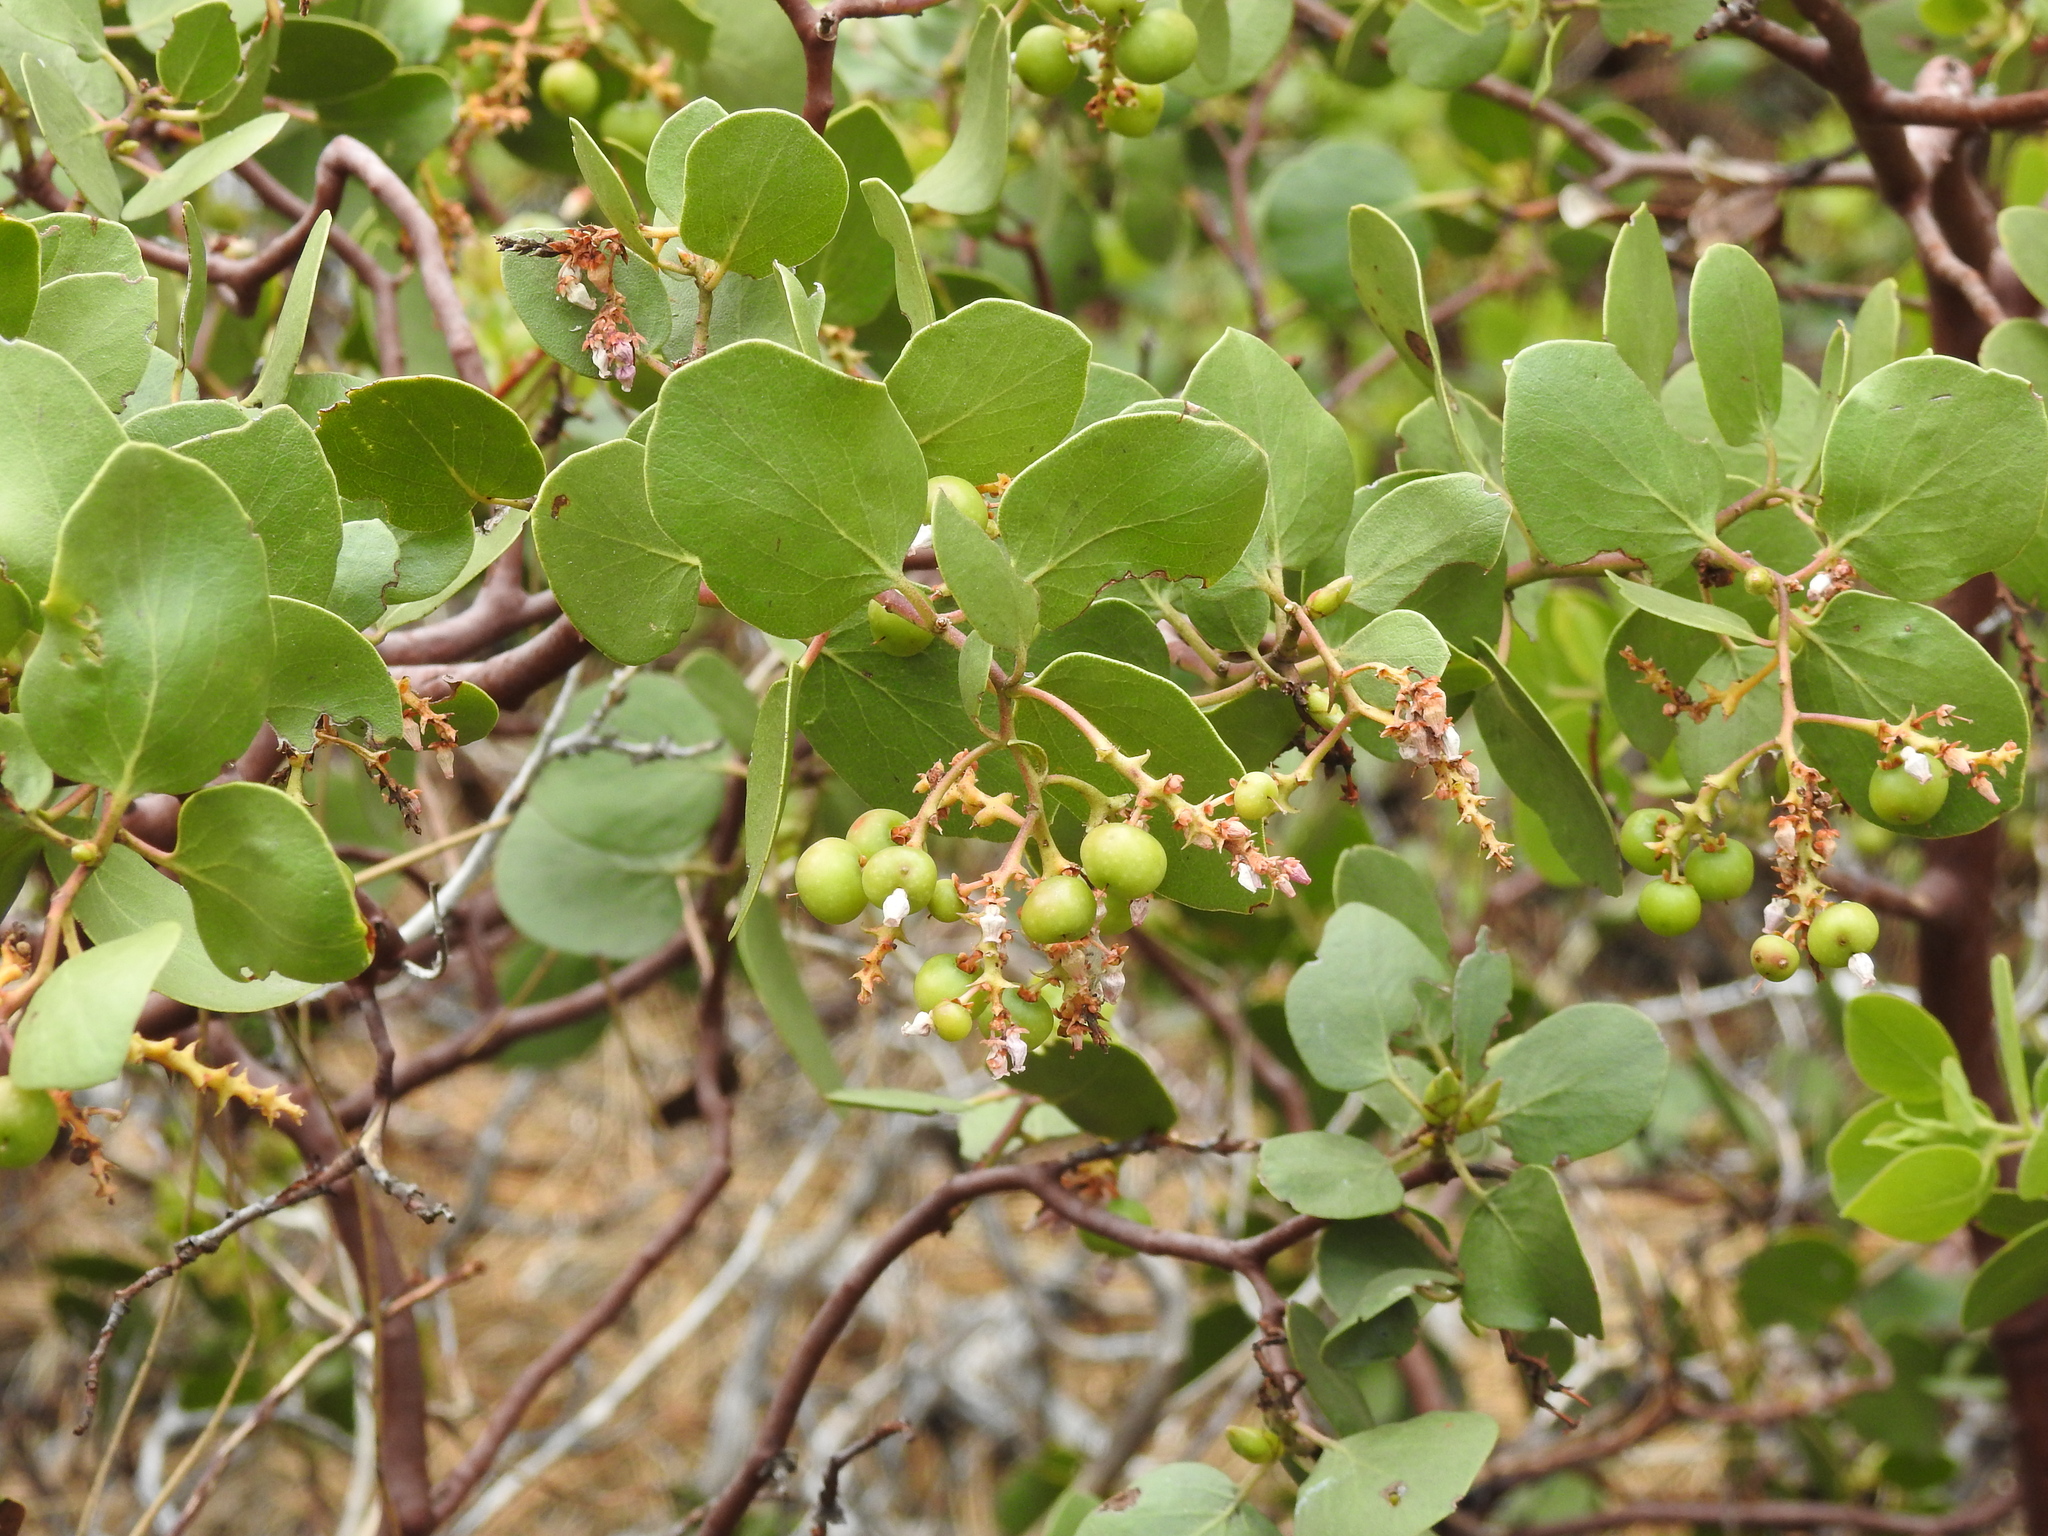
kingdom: Plantae
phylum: Tracheophyta
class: Magnoliopsida
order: Ericales
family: Ericaceae
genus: Arctostaphylos
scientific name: Arctostaphylos patula
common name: Green-leaf manzanita
